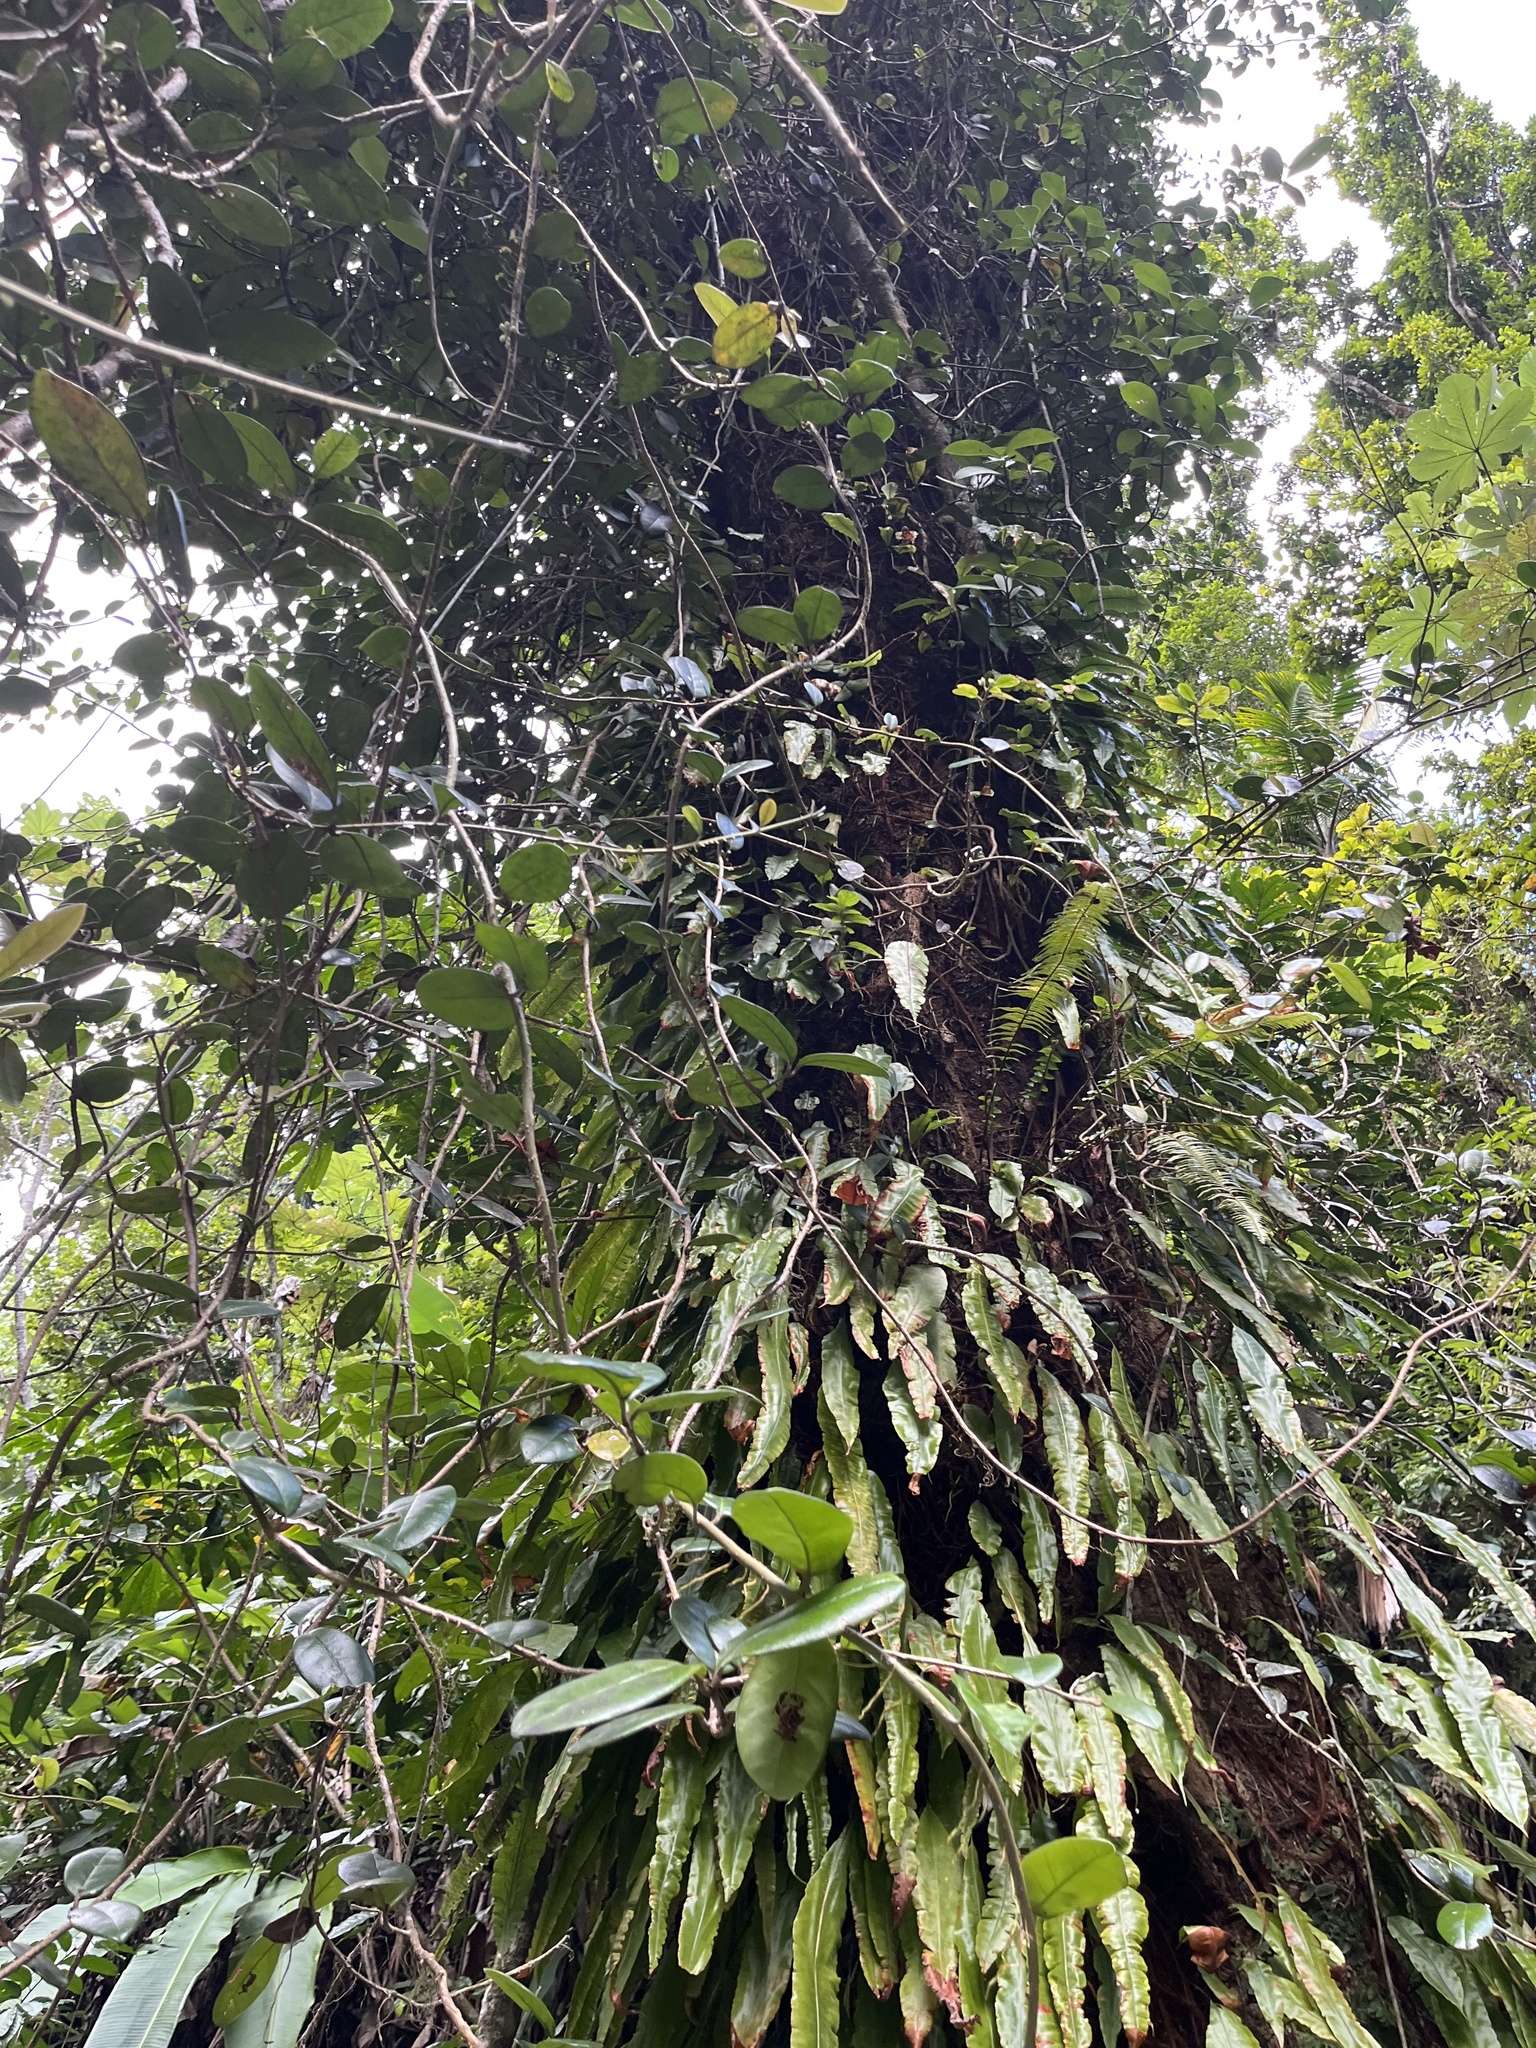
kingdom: Plantae
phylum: Tracheophyta
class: Magnoliopsida
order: Lamiales
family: Schlegeliaceae
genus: Schlegelia
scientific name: Schlegelia brachyantha
